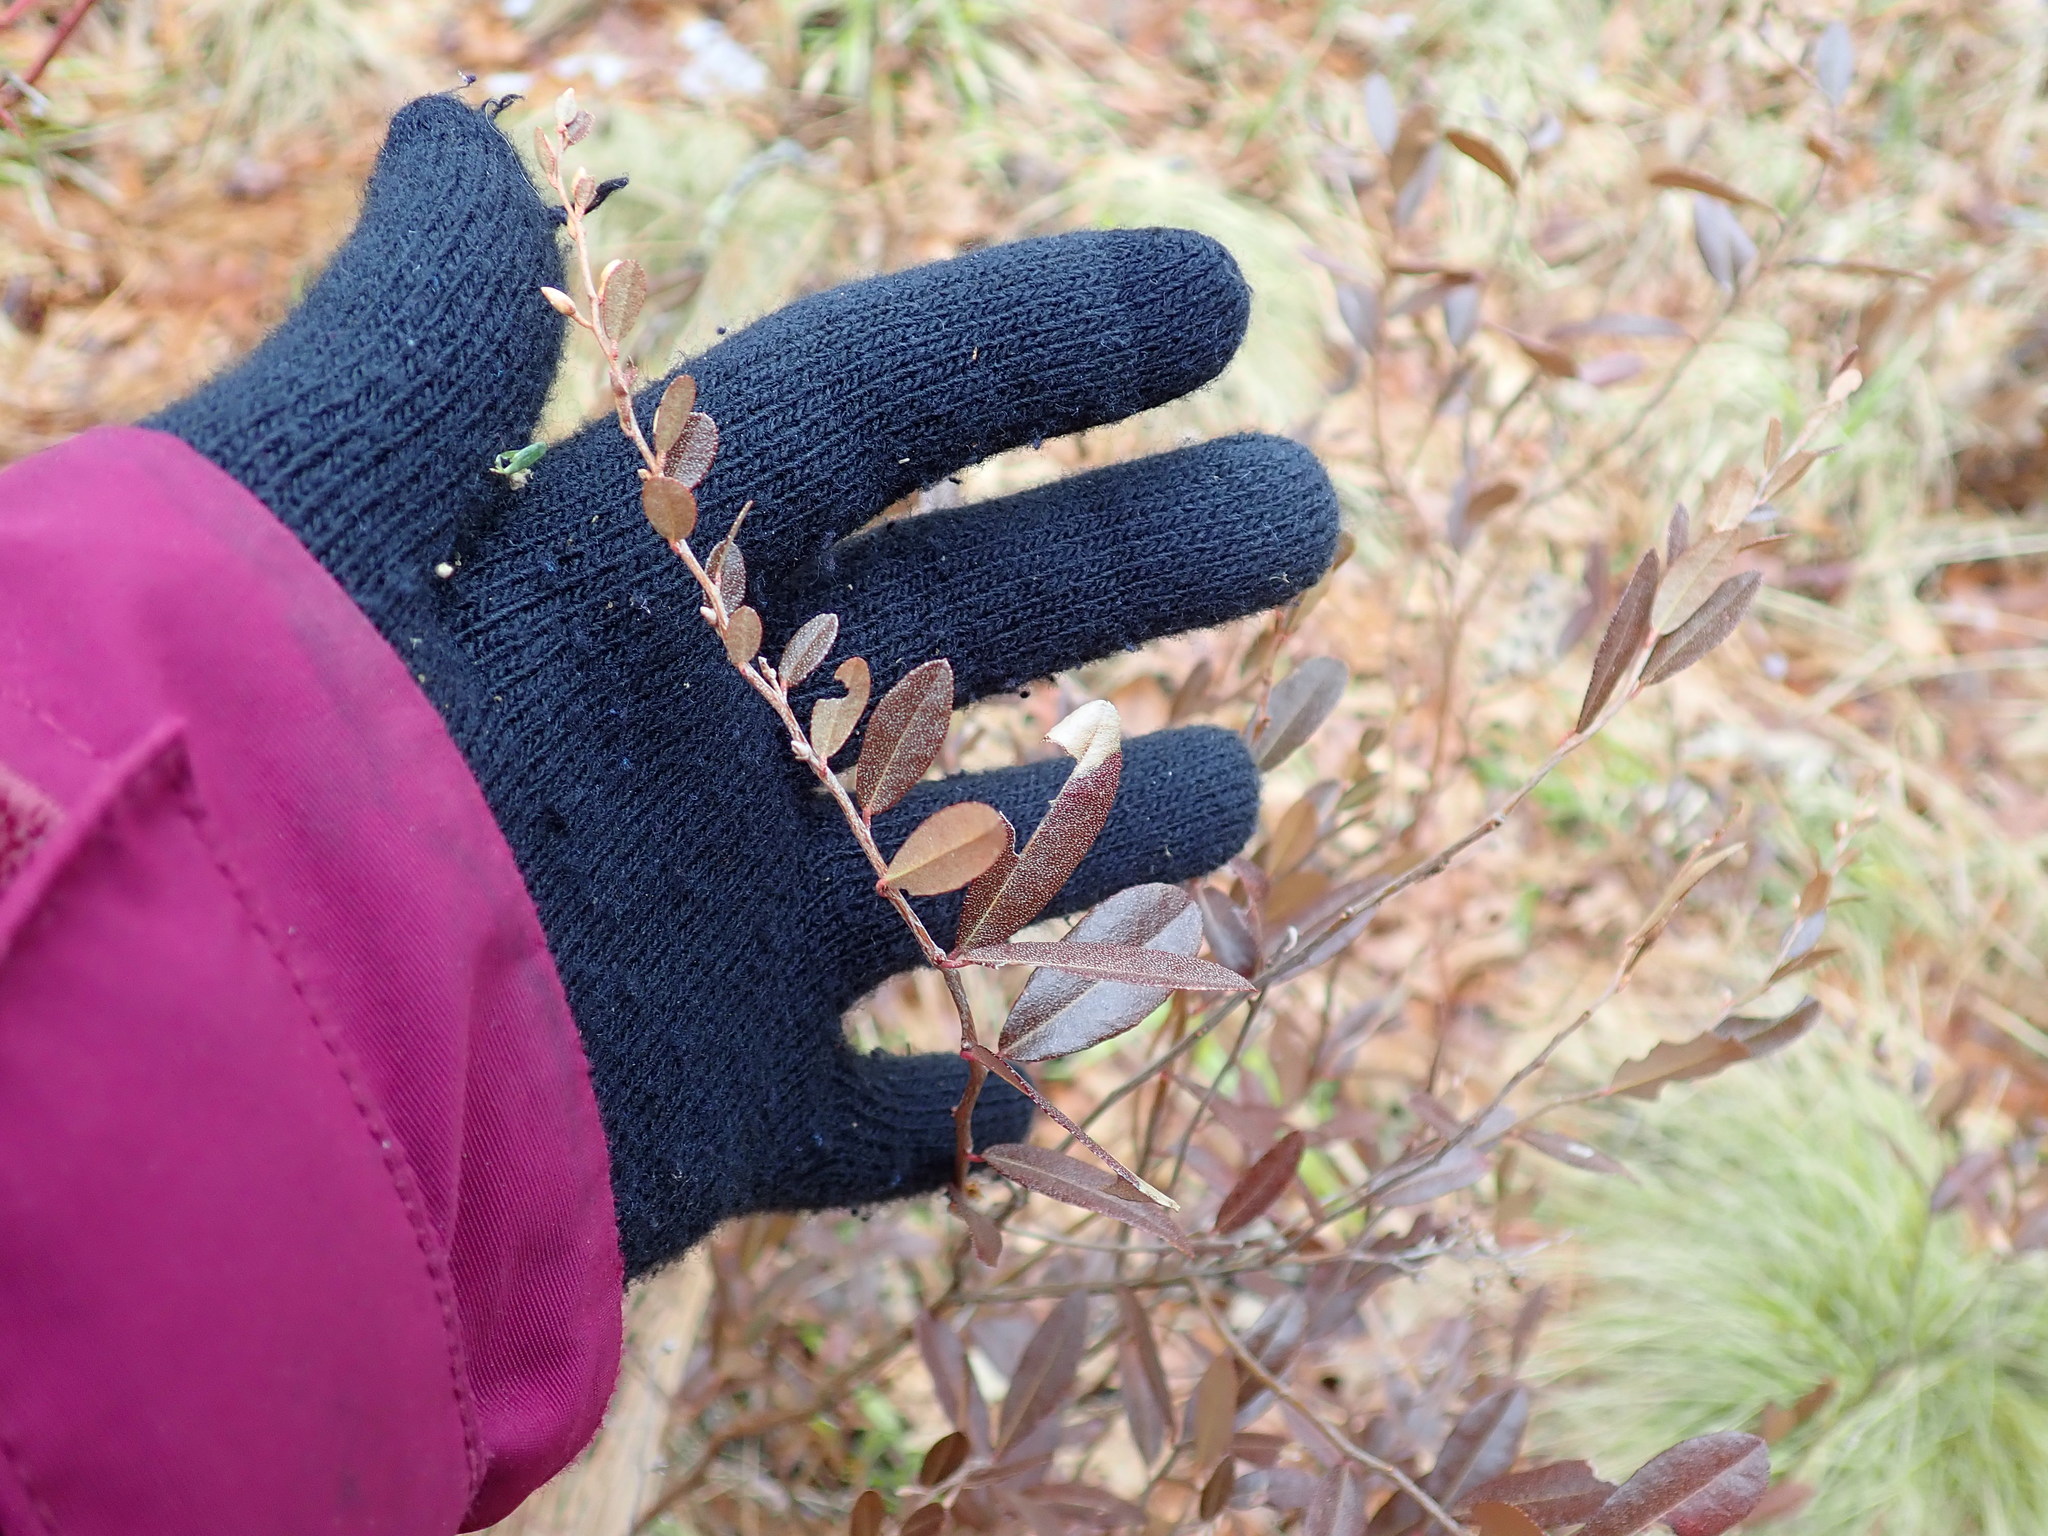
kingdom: Plantae
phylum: Tracheophyta
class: Magnoliopsida
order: Ericales
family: Ericaceae
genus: Chamaedaphne
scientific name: Chamaedaphne calyculata
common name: Leatherleaf
